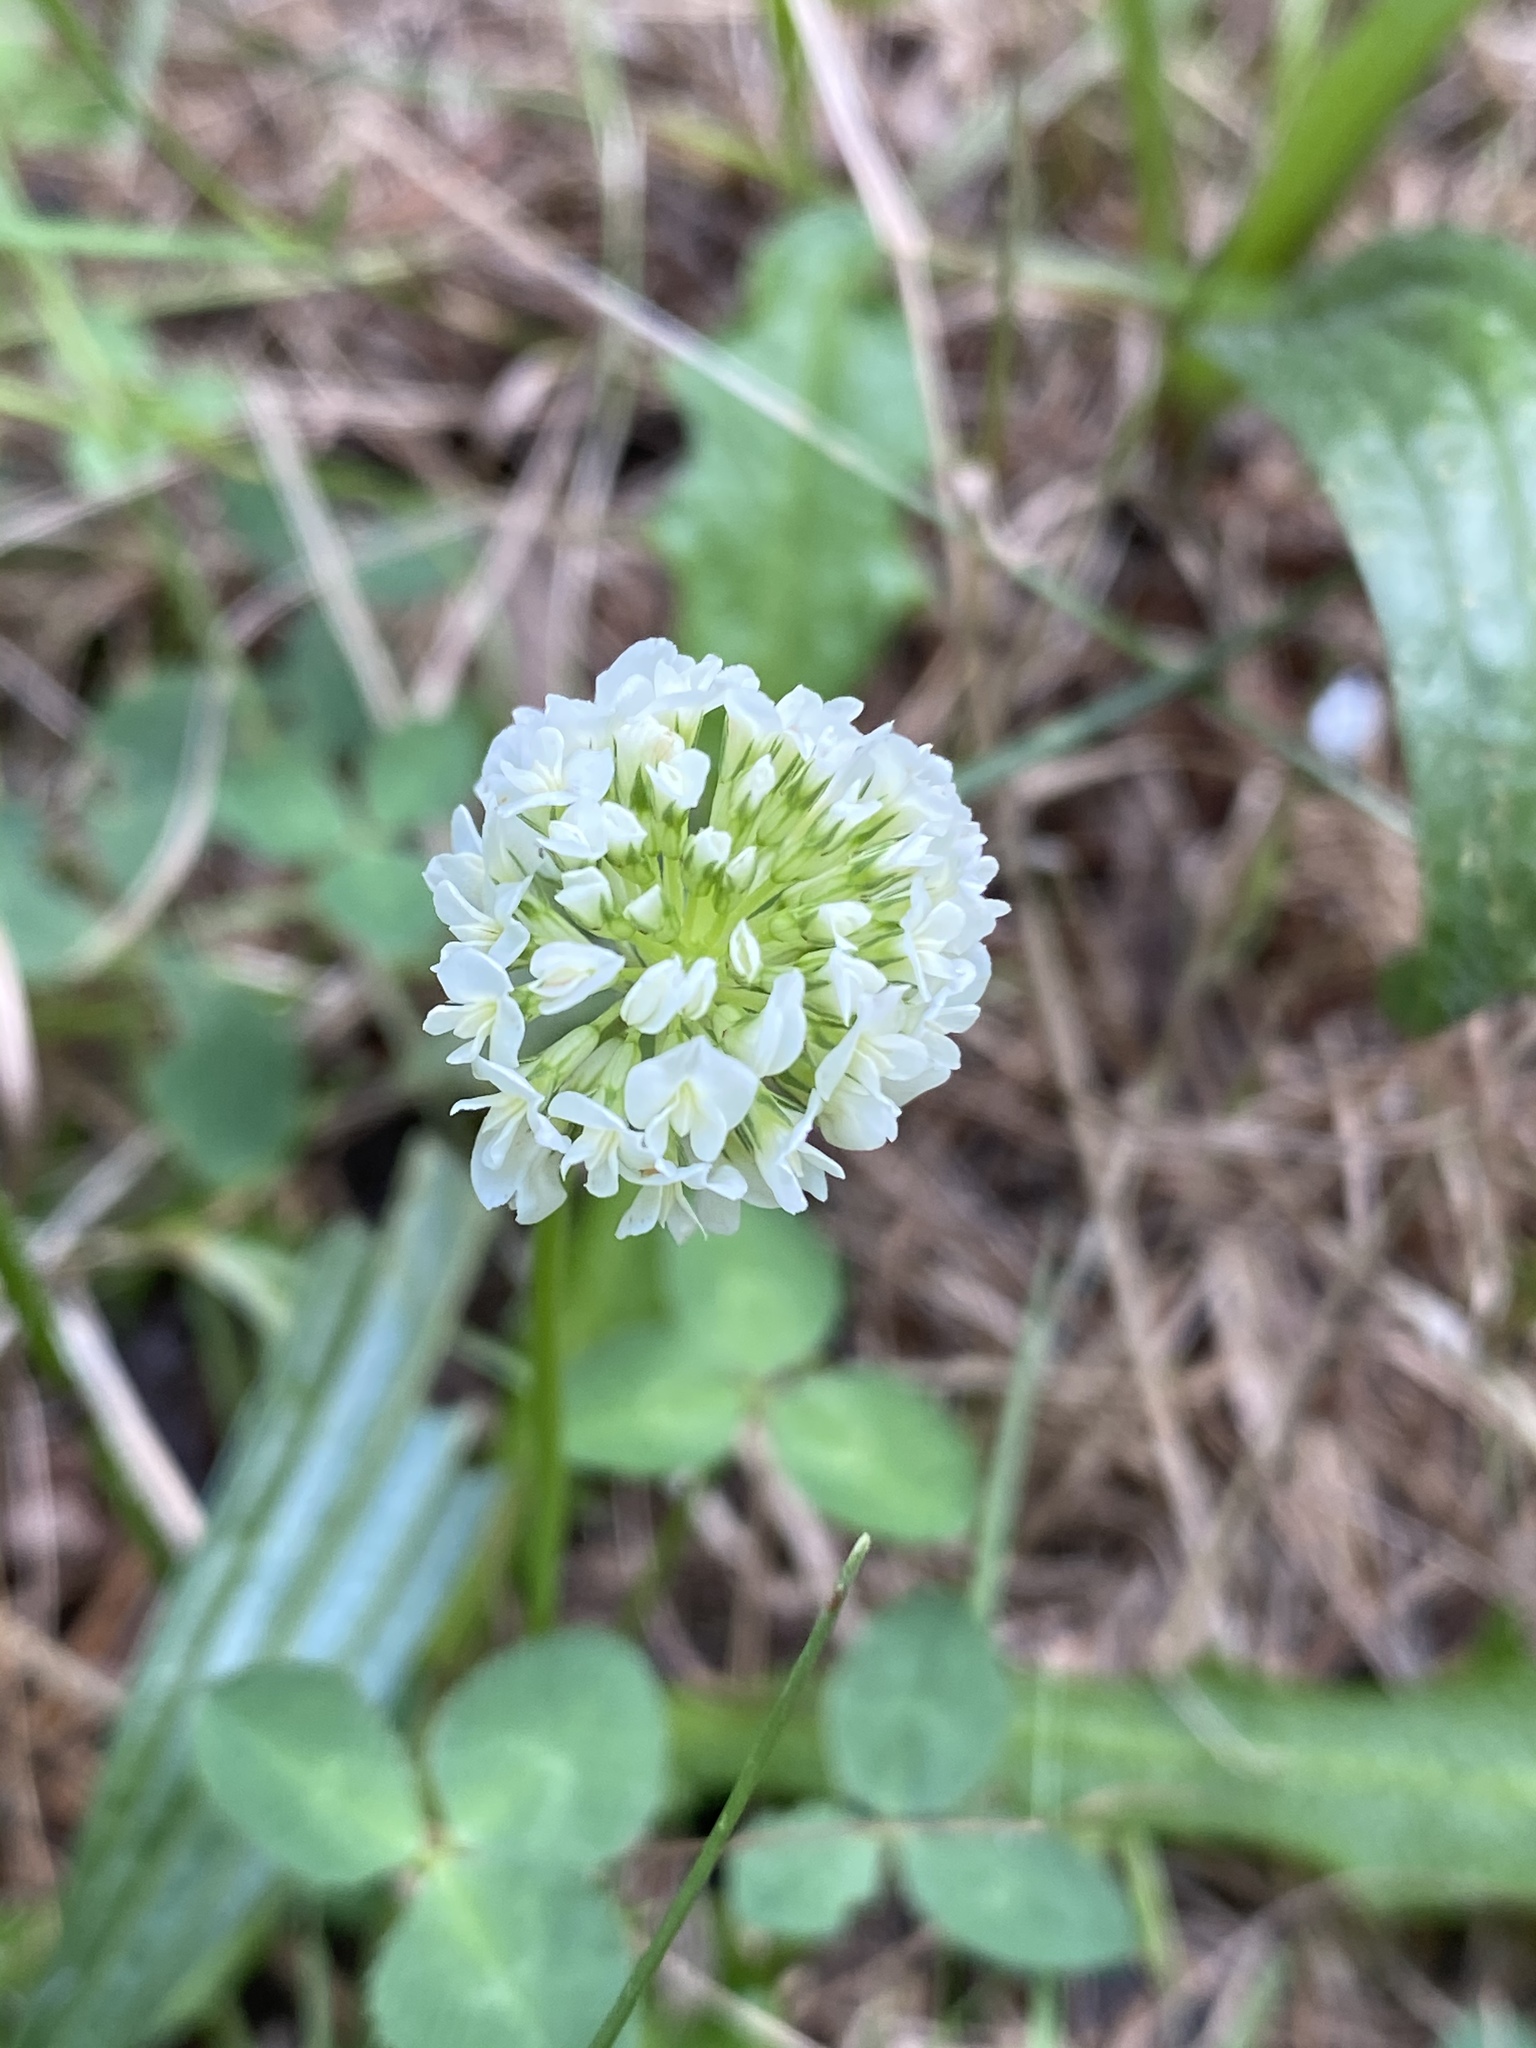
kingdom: Plantae
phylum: Tracheophyta
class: Magnoliopsida
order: Fabales
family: Fabaceae
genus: Trifolium
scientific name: Trifolium repens
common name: White clover
